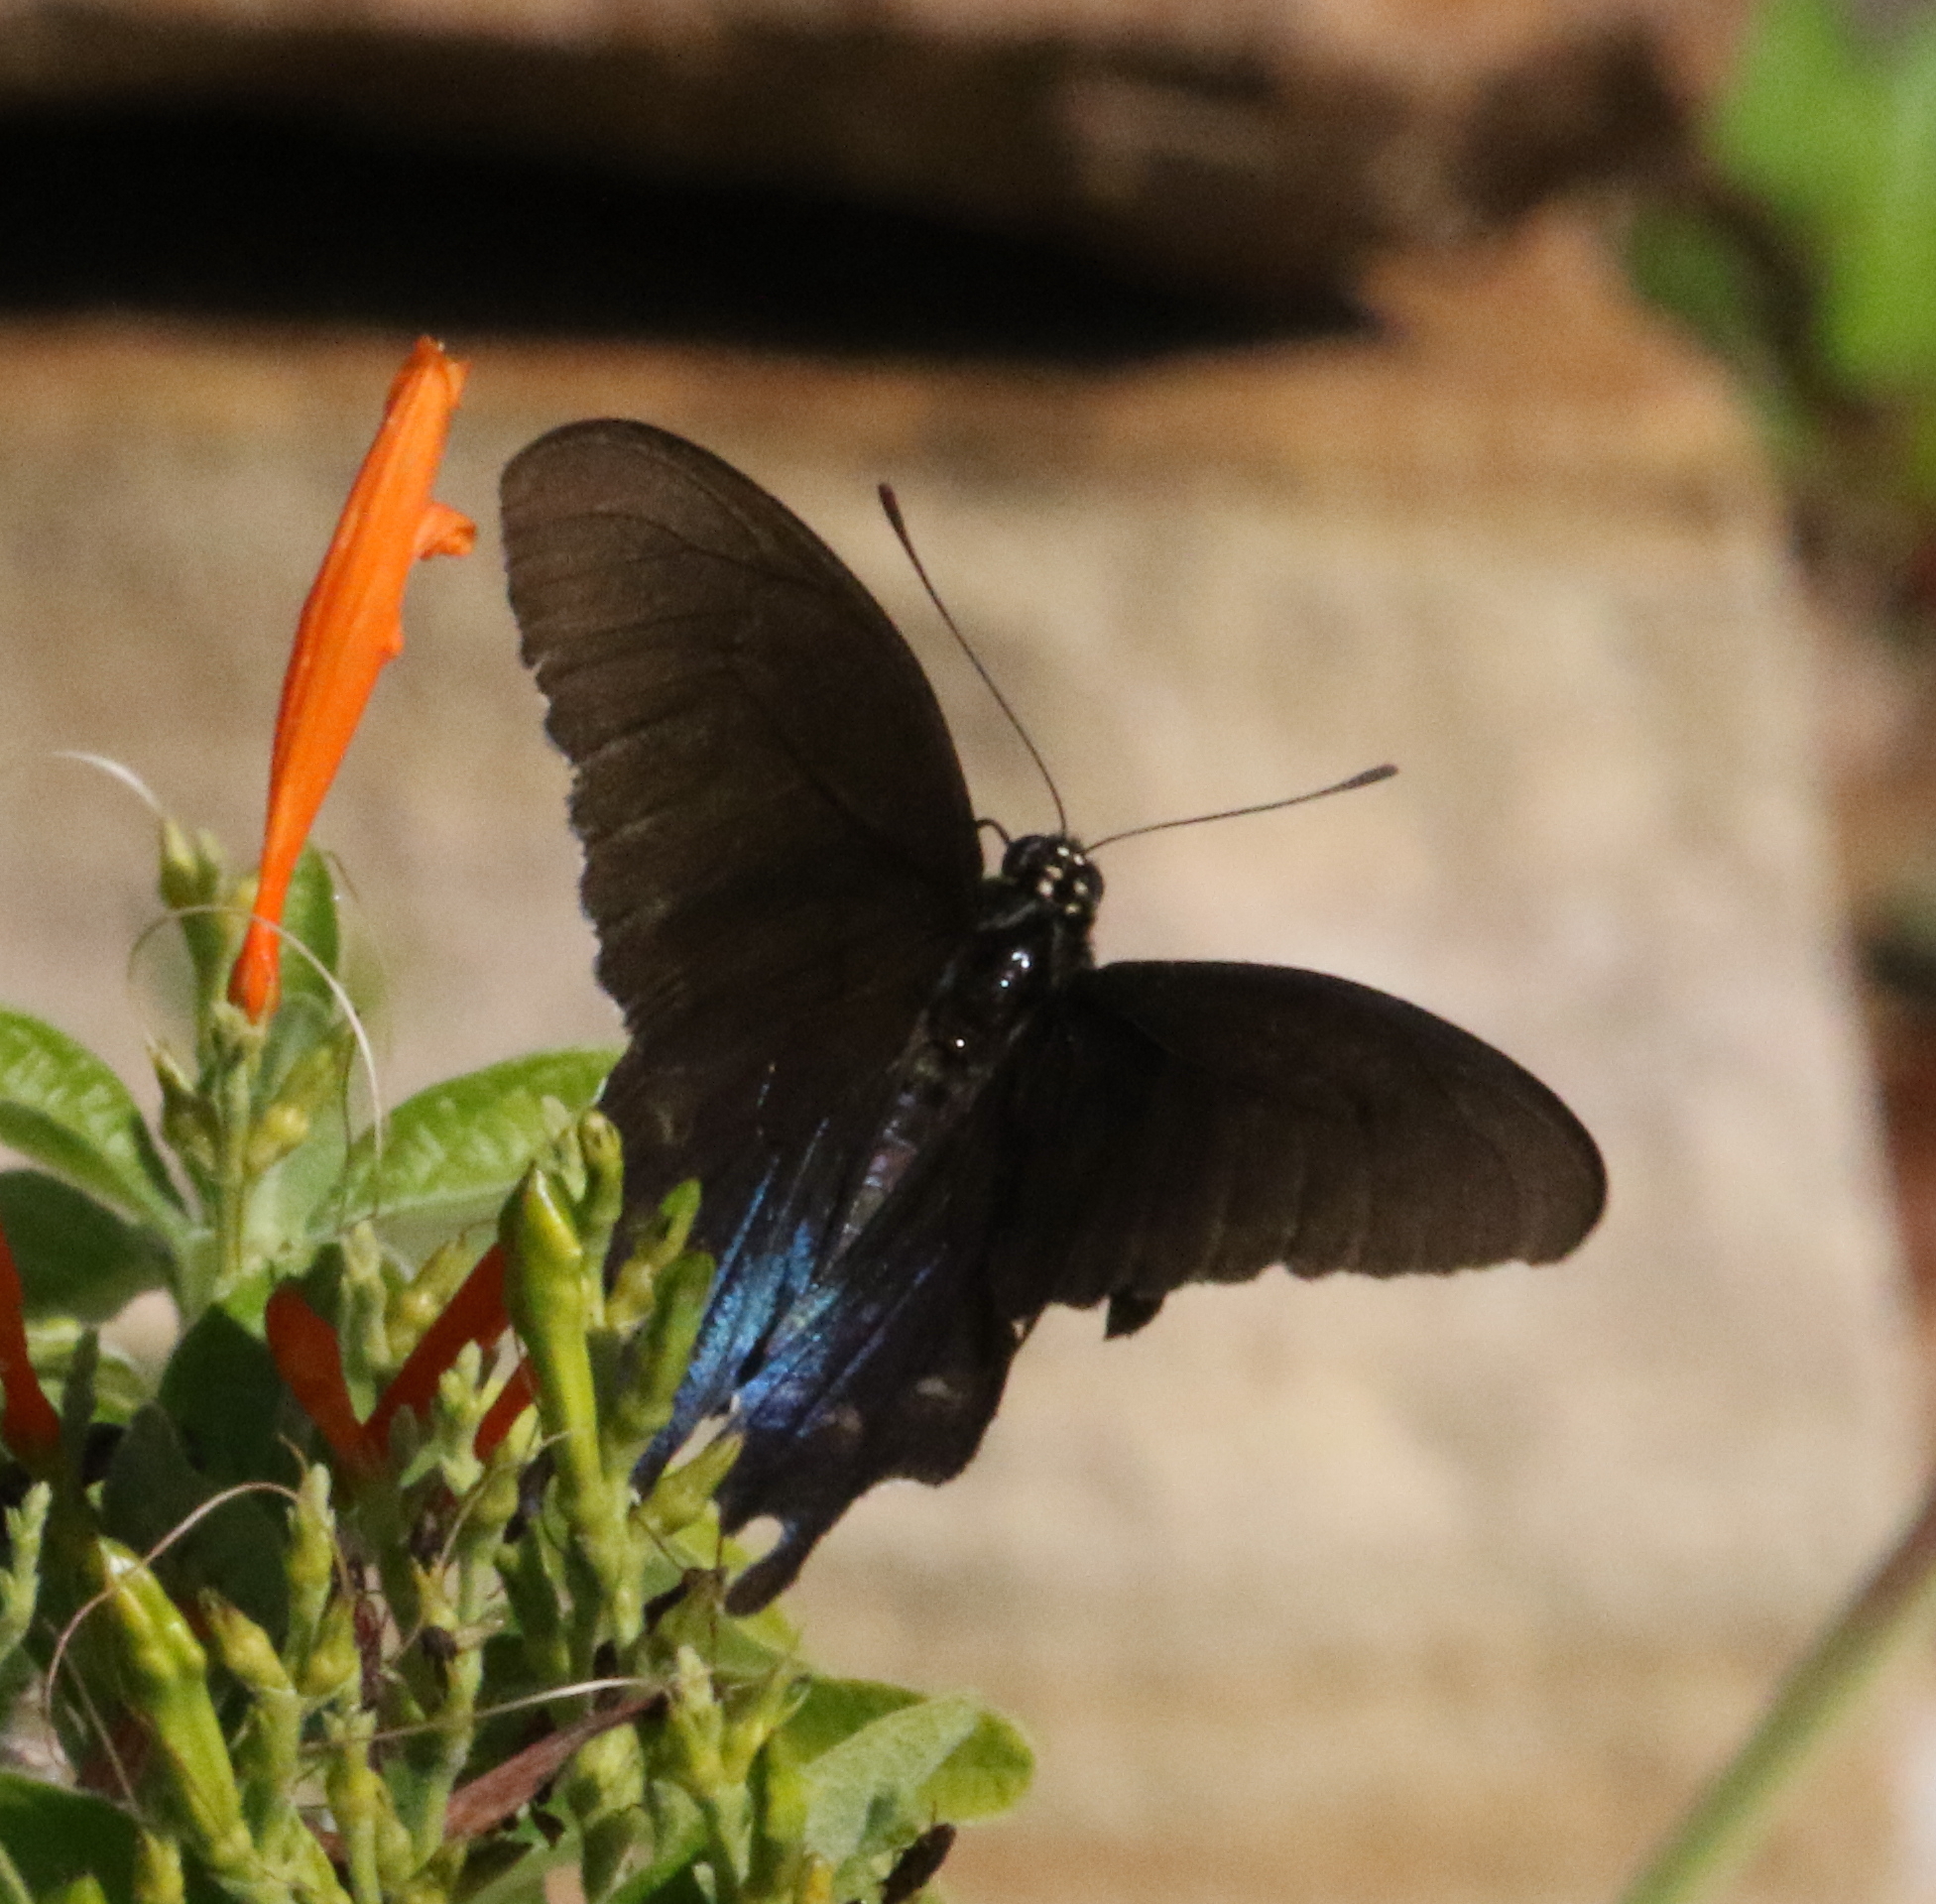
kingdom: Animalia
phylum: Arthropoda
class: Insecta
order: Lepidoptera
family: Papilionidae
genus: Battus
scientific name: Battus philenor
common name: Pipevine swallowtail
